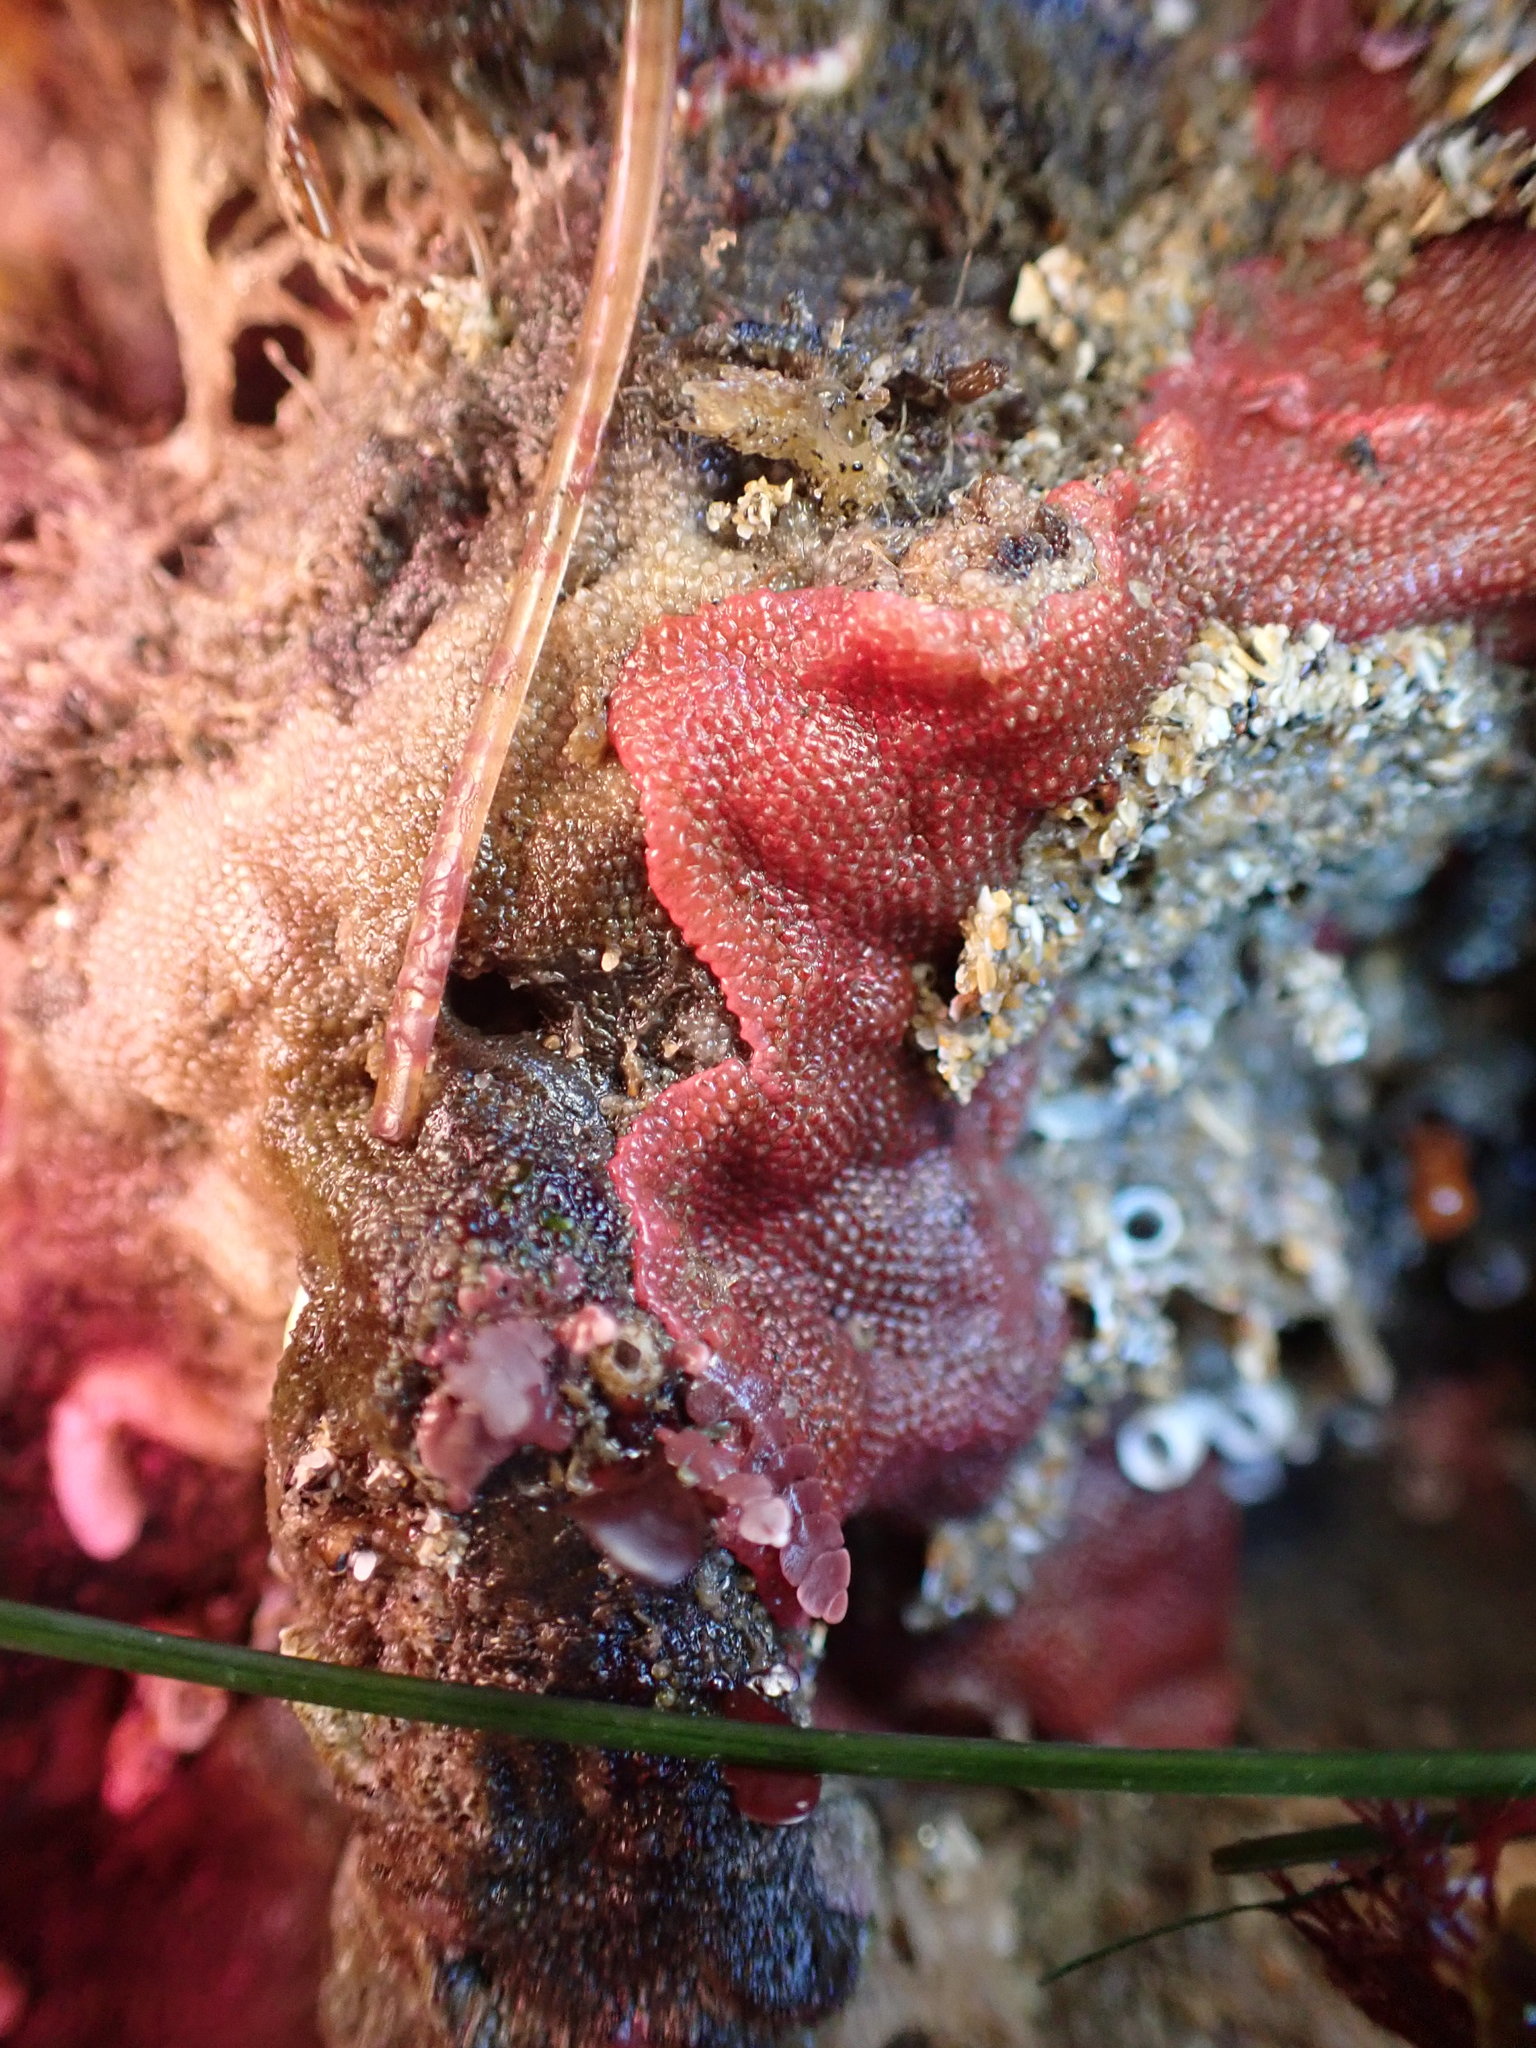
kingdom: Animalia
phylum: Bryozoa
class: Gymnolaemata
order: Cheilostomatida
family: Eurystomellidae
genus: Integripelta
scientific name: Integripelta bilabiata
